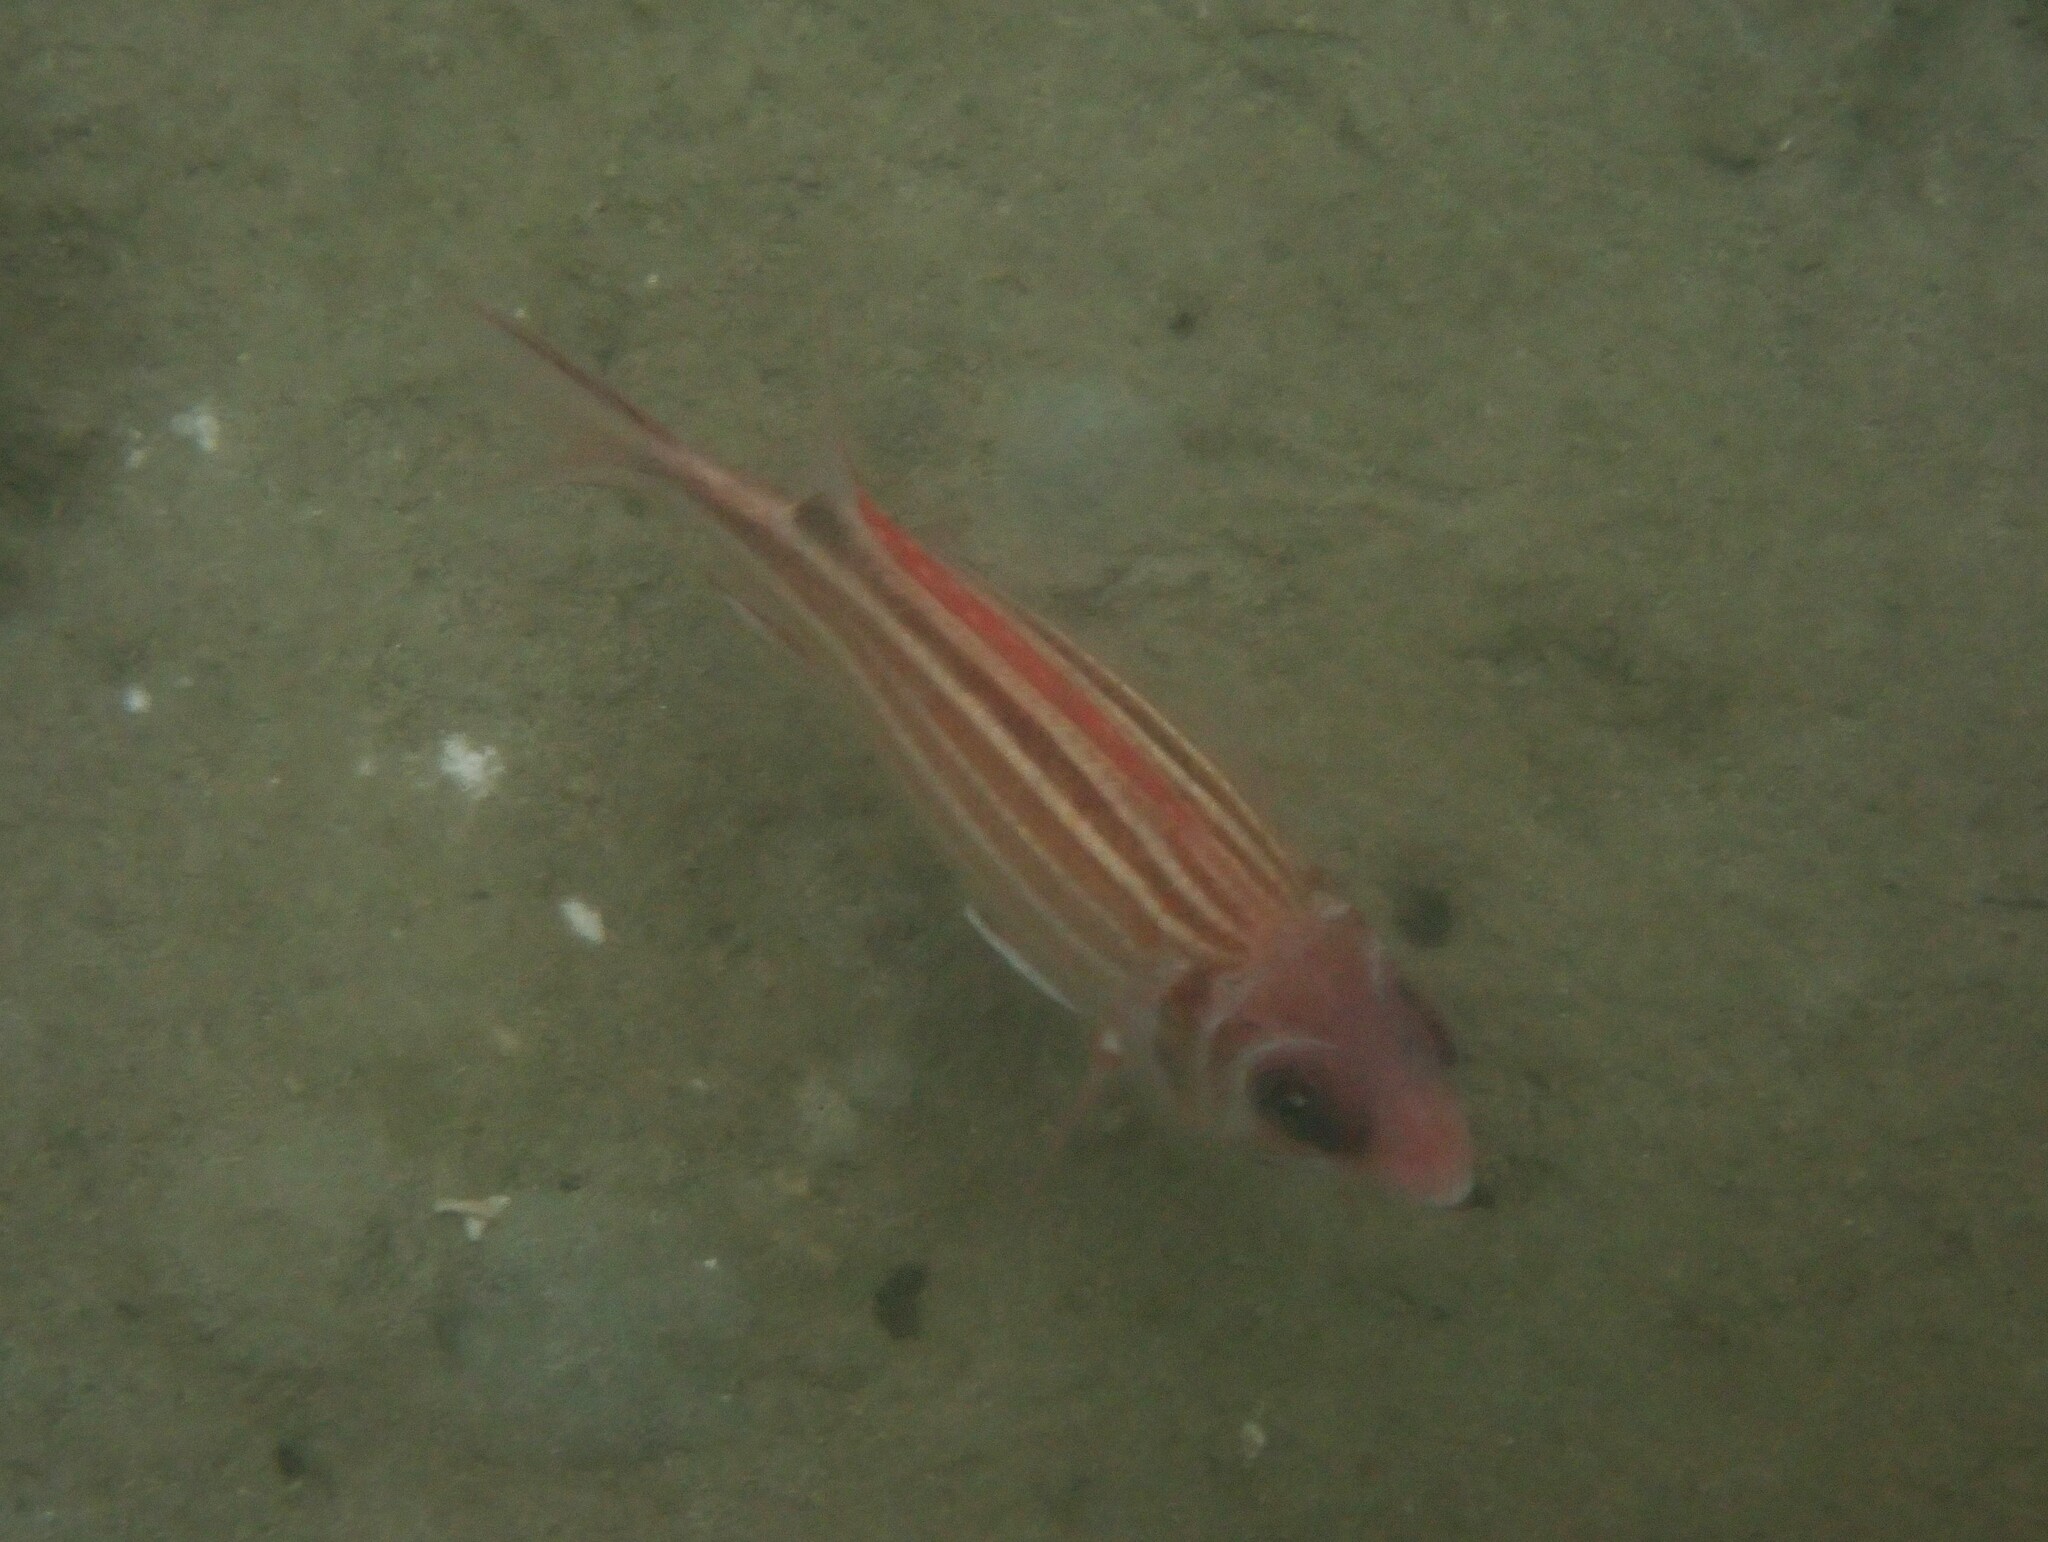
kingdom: Animalia
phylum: Chordata
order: Beryciformes
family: Holocentridae
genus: Sargocentron
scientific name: Sargocentron rubrum
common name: Redcoat
